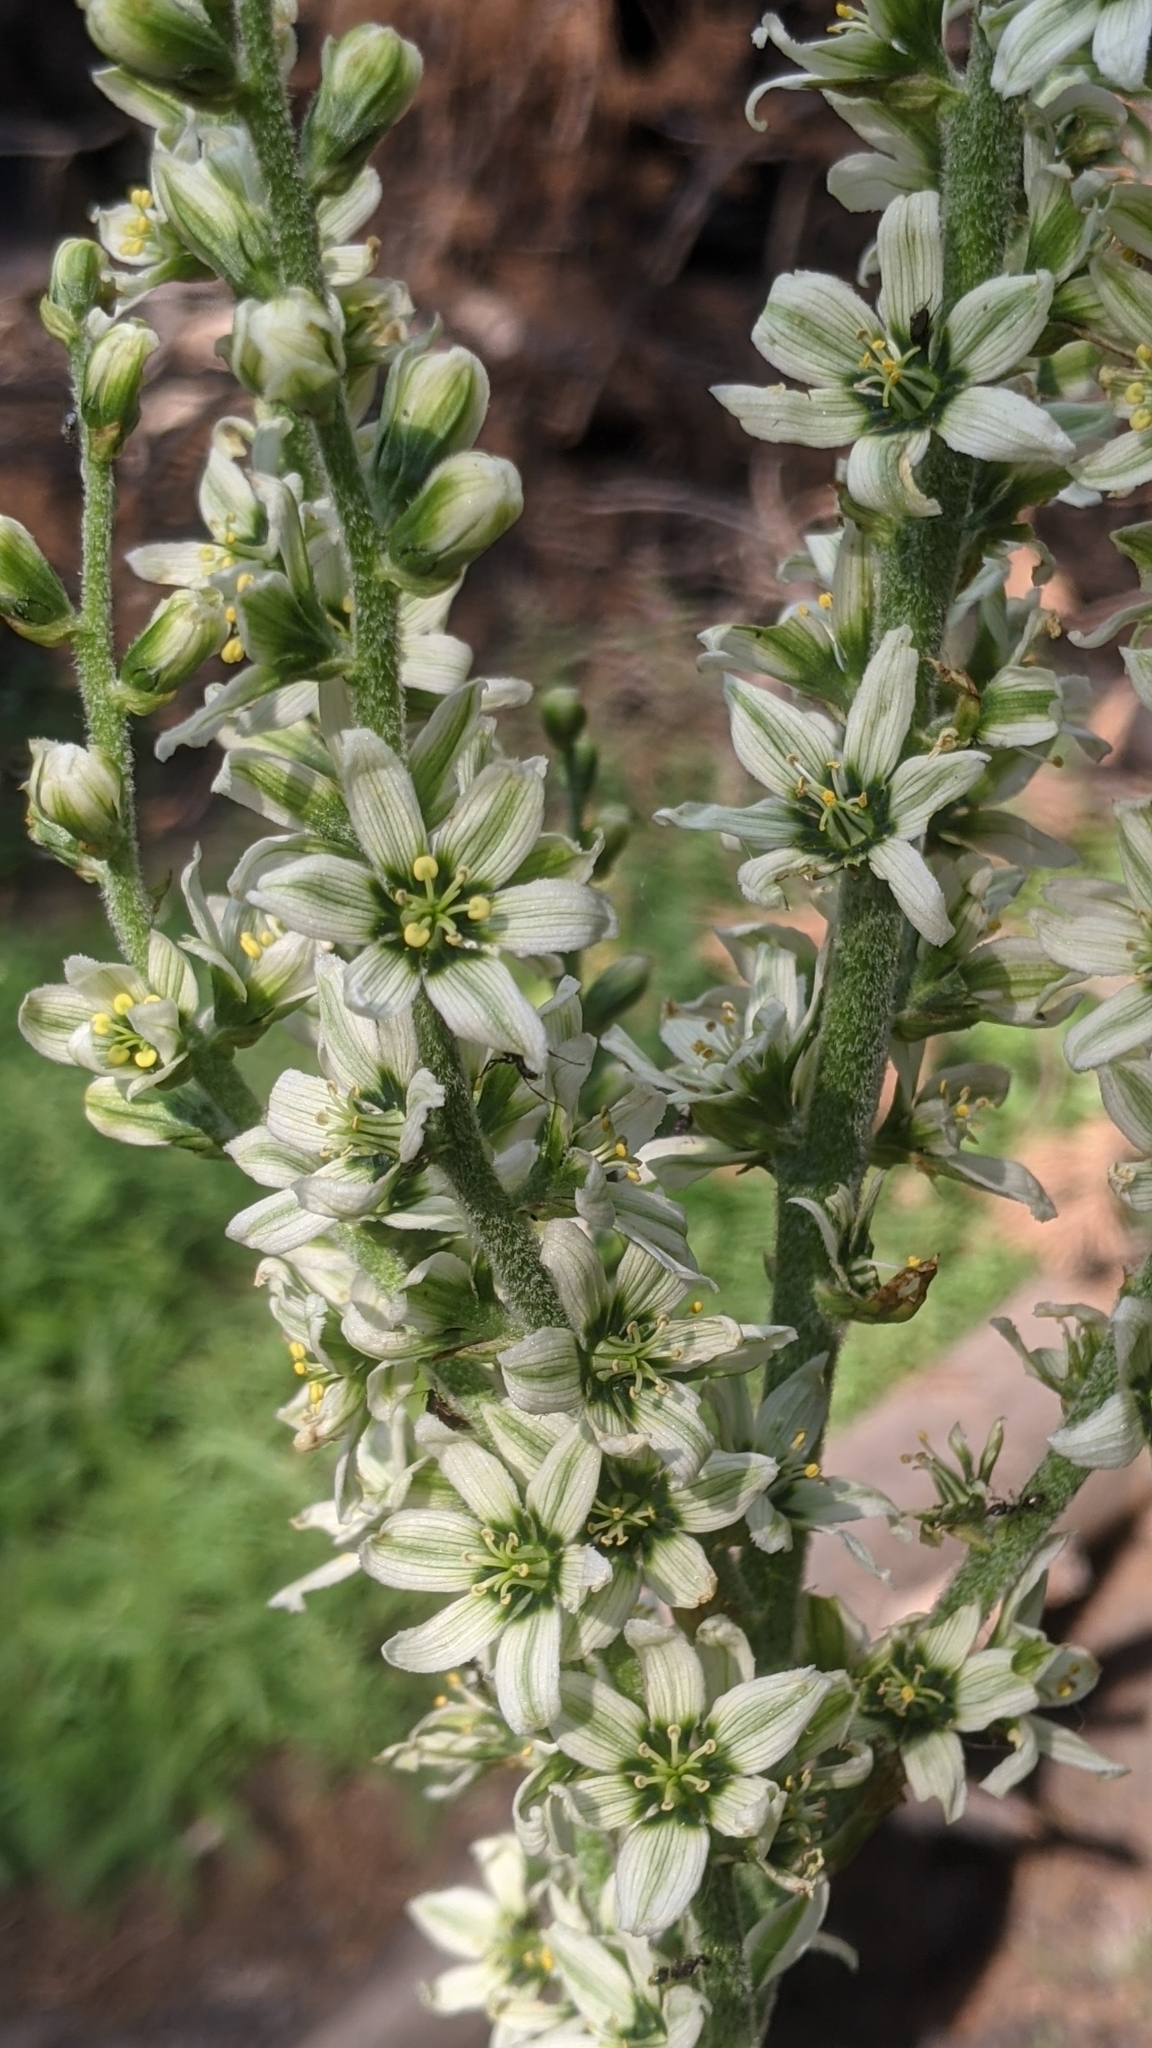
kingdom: Plantae
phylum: Tracheophyta
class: Liliopsida
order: Liliales
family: Melanthiaceae
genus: Veratrum
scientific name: Veratrum californicum
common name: California veratrum
